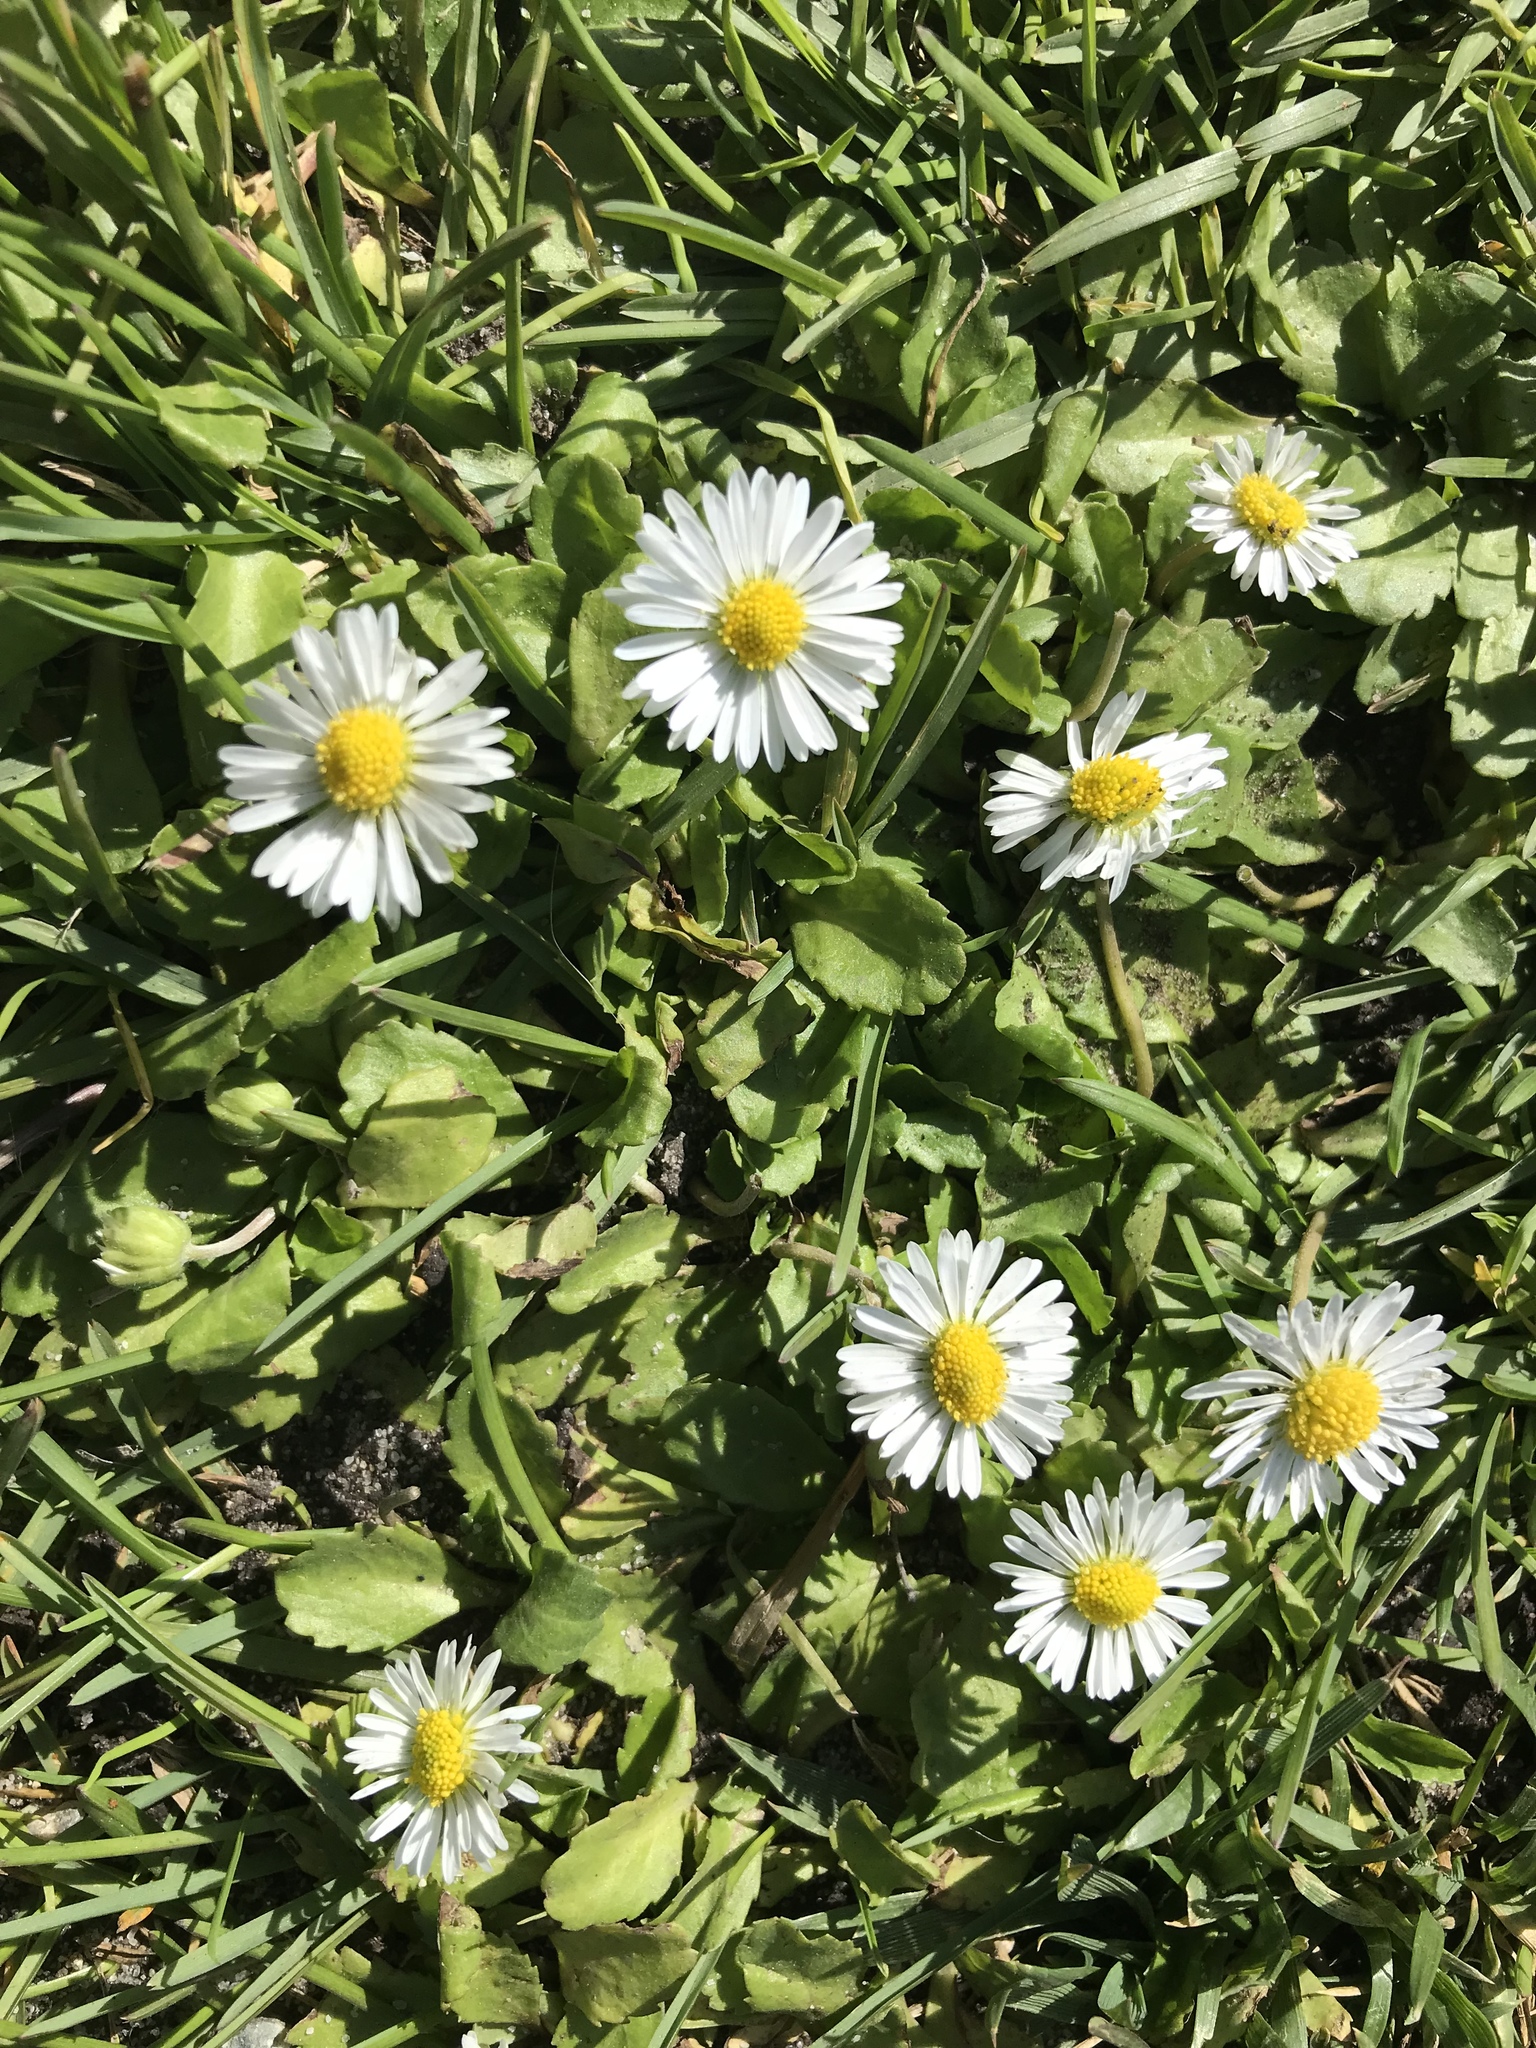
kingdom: Plantae
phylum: Tracheophyta
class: Magnoliopsida
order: Asterales
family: Asteraceae
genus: Bellis
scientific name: Bellis perennis
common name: Lawndaisy
